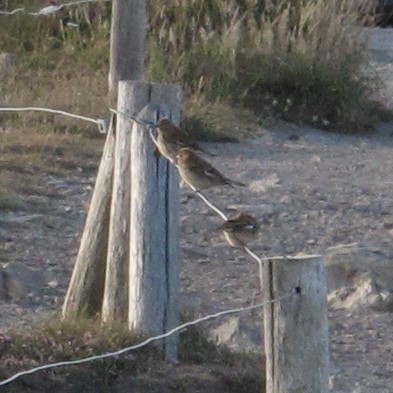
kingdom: Animalia
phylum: Chordata
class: Aves
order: Passeriformes
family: Fringillidae
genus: Fringilla
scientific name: Fringilla coelebs
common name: Common chaffinch
